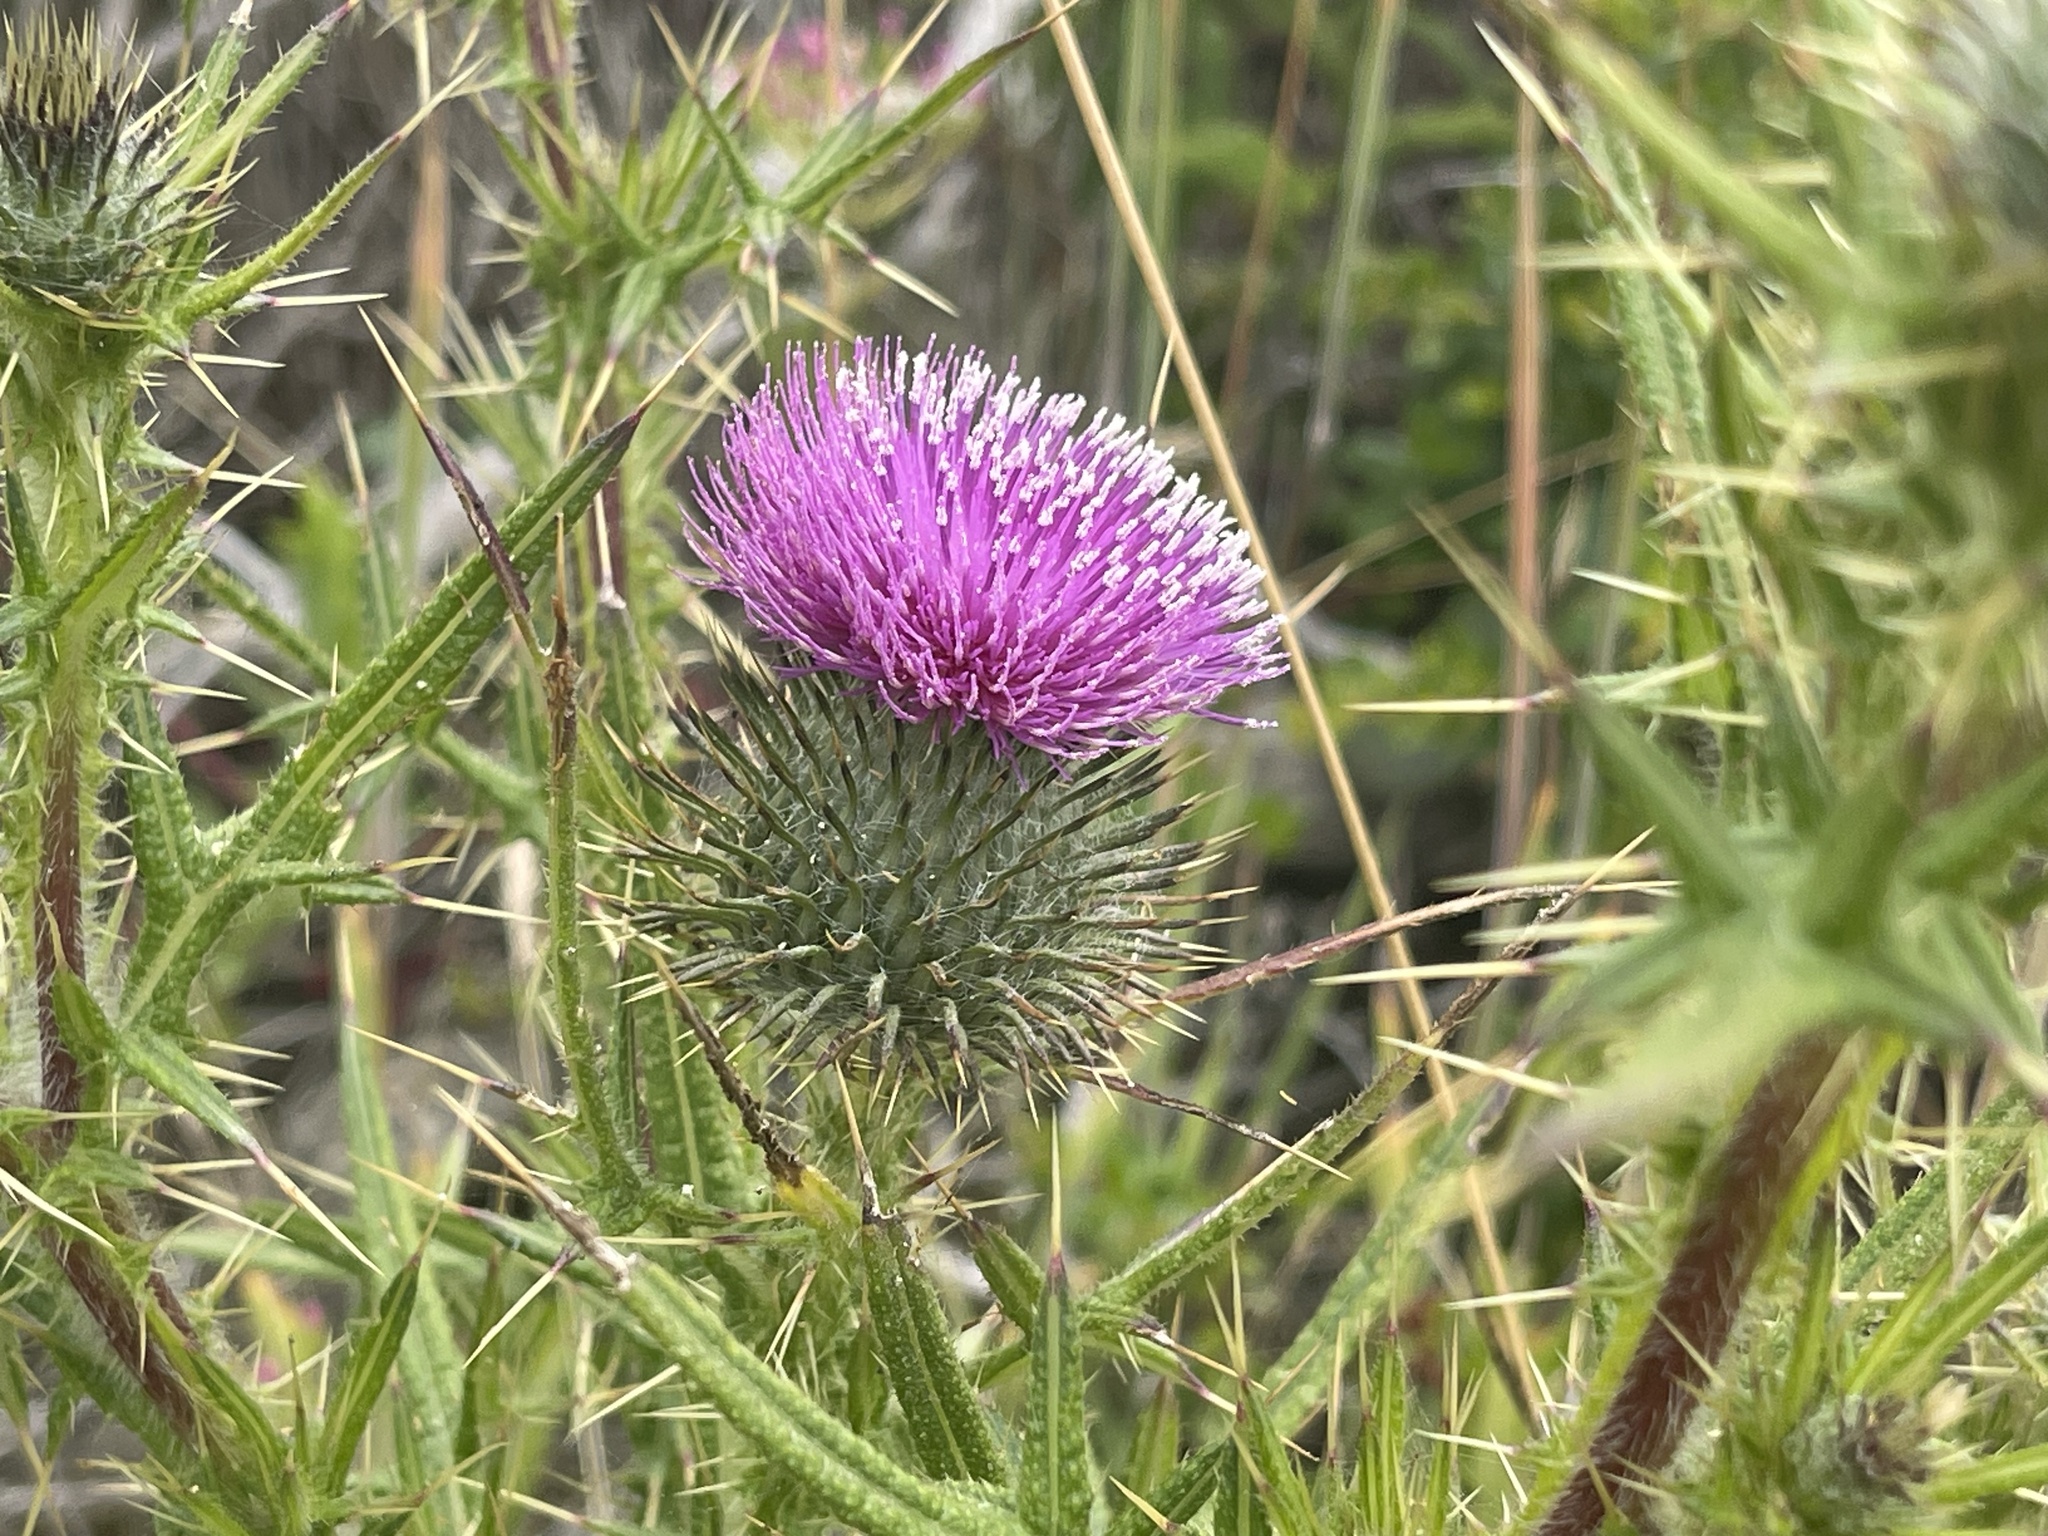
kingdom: Plantae
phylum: Tracheophyta
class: Magnoliopsida
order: Asterales
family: Asteraceae
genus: Cirsium
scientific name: Cirsium vulgare
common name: Bull thistle
